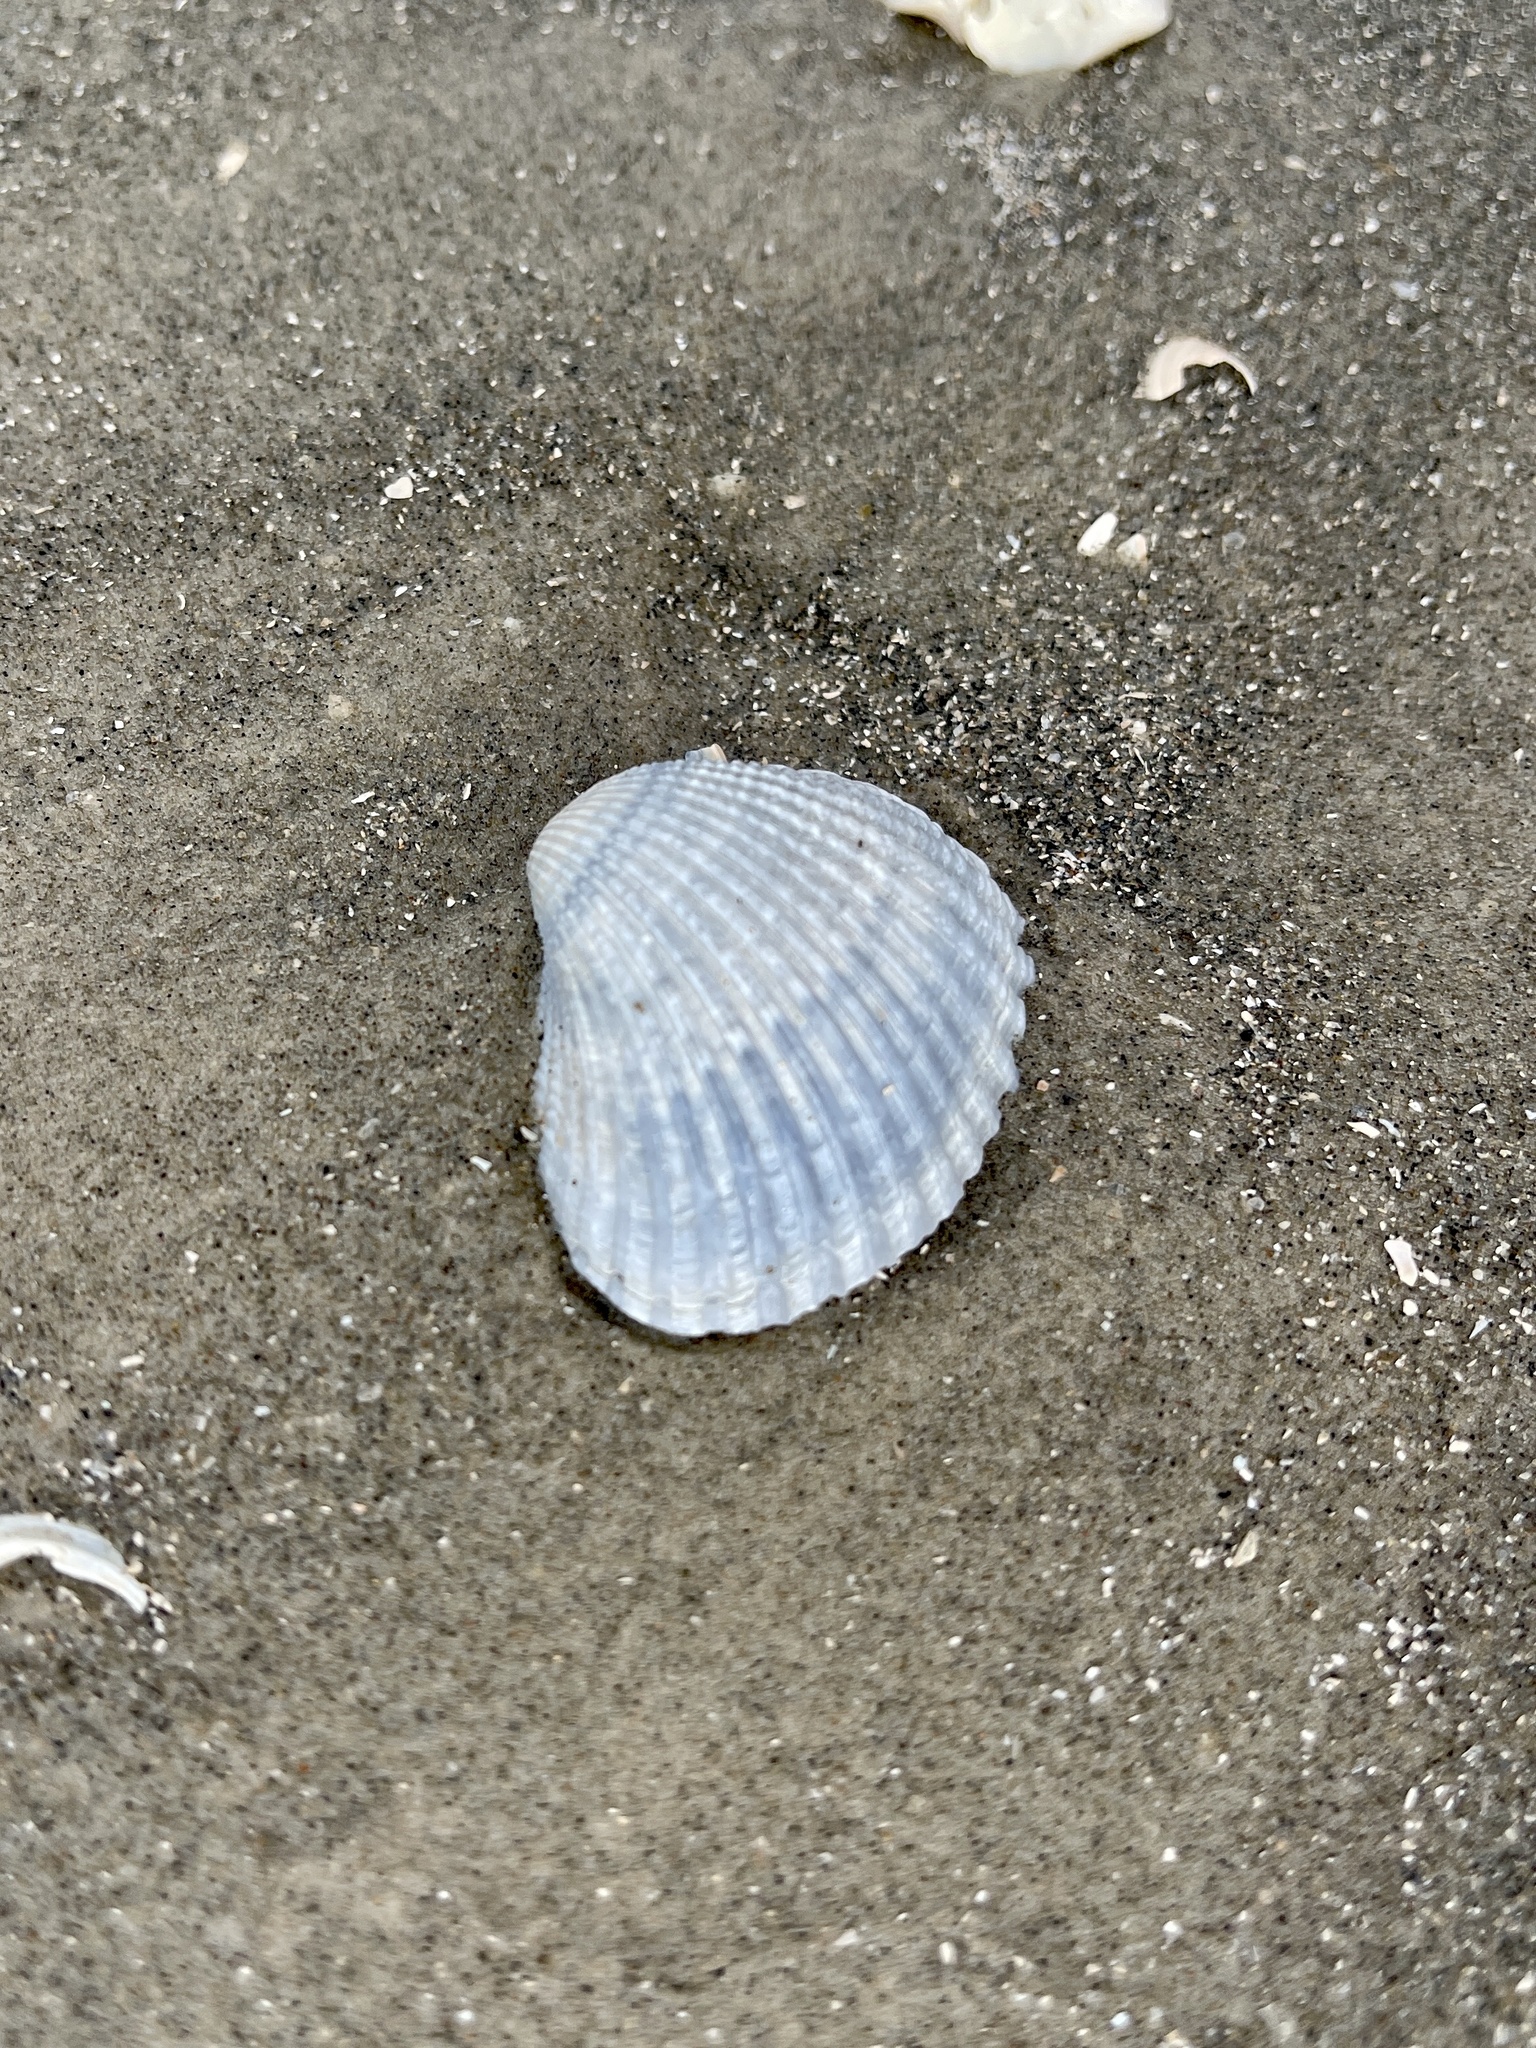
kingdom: Animalia
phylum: Mollusca
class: Bivalvia
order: Arcida
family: Arcidae
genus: Lunarca
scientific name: Lunarca ovalis
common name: Blood ark
